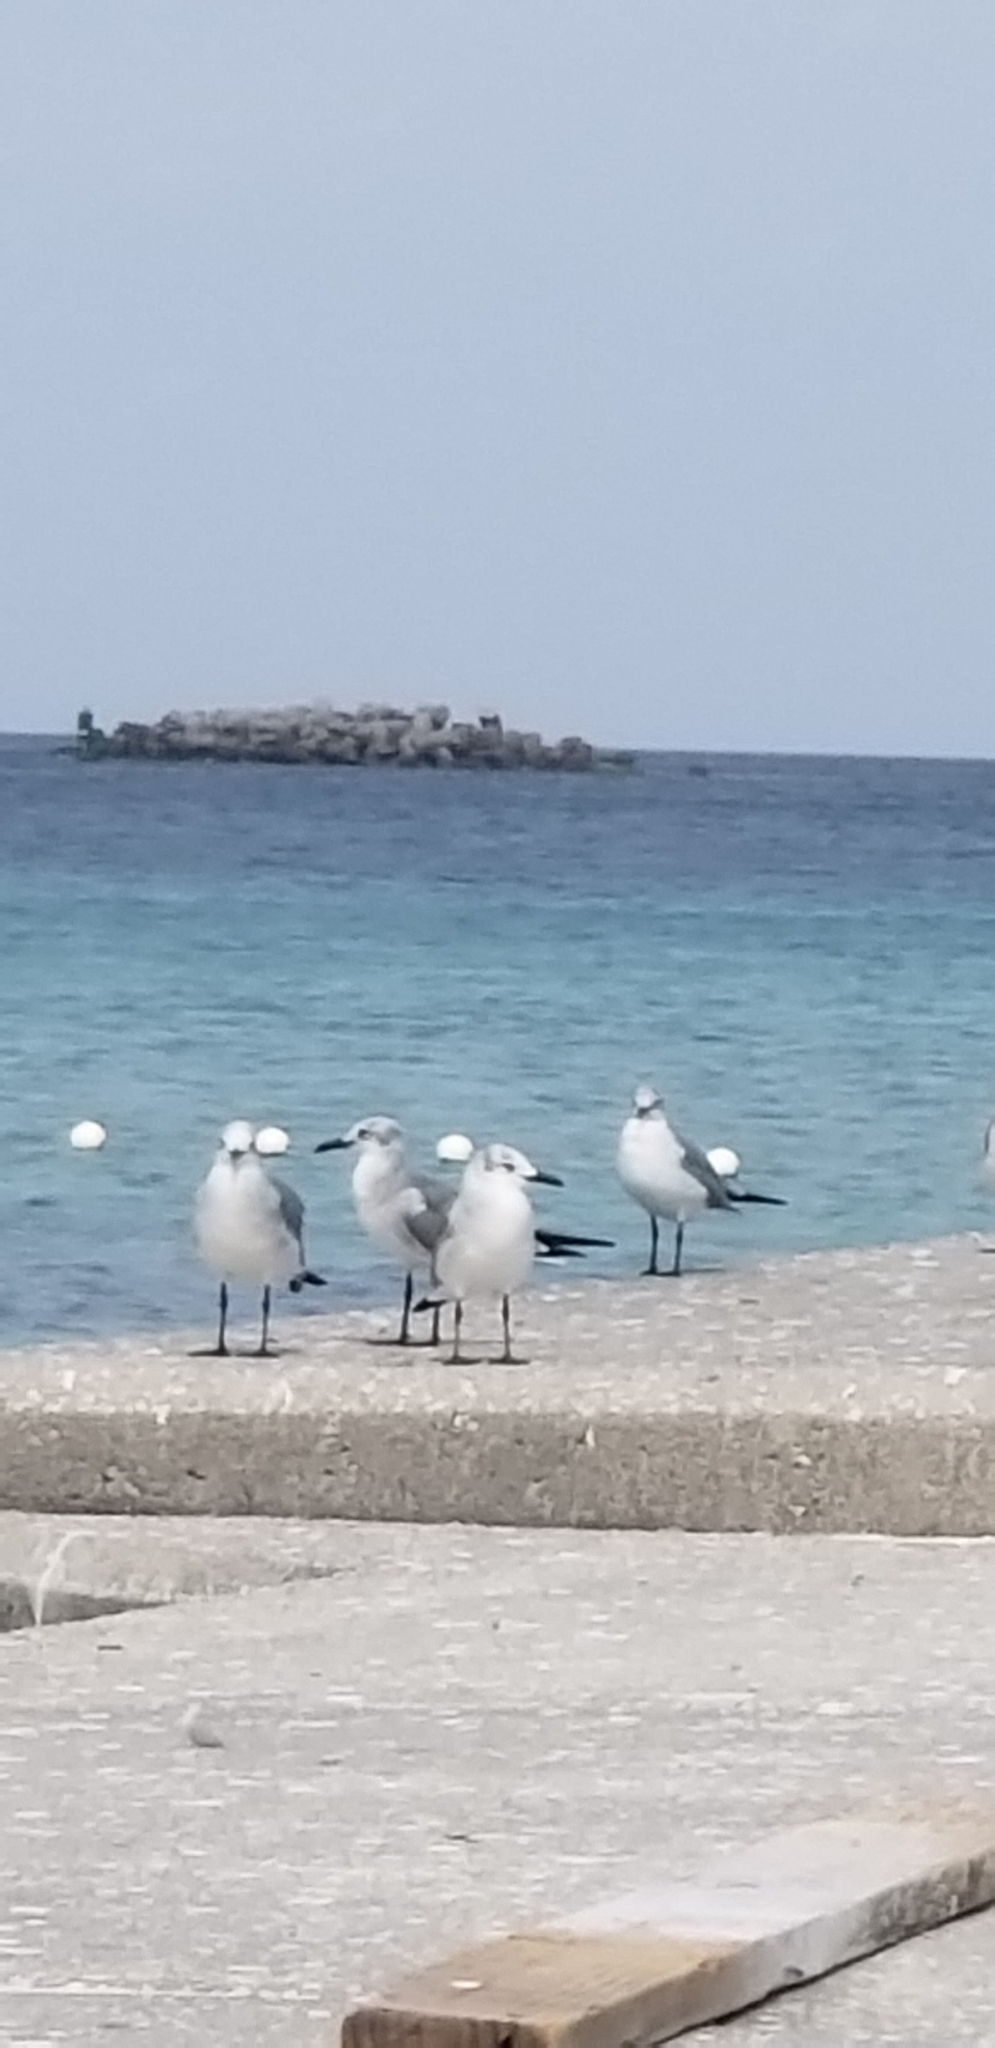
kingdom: Animalia
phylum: Chordata
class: Aves
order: Charadriiformes
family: Laridae
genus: Leucophaeus
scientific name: Leucophaeus atricilla
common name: Laughing gull
